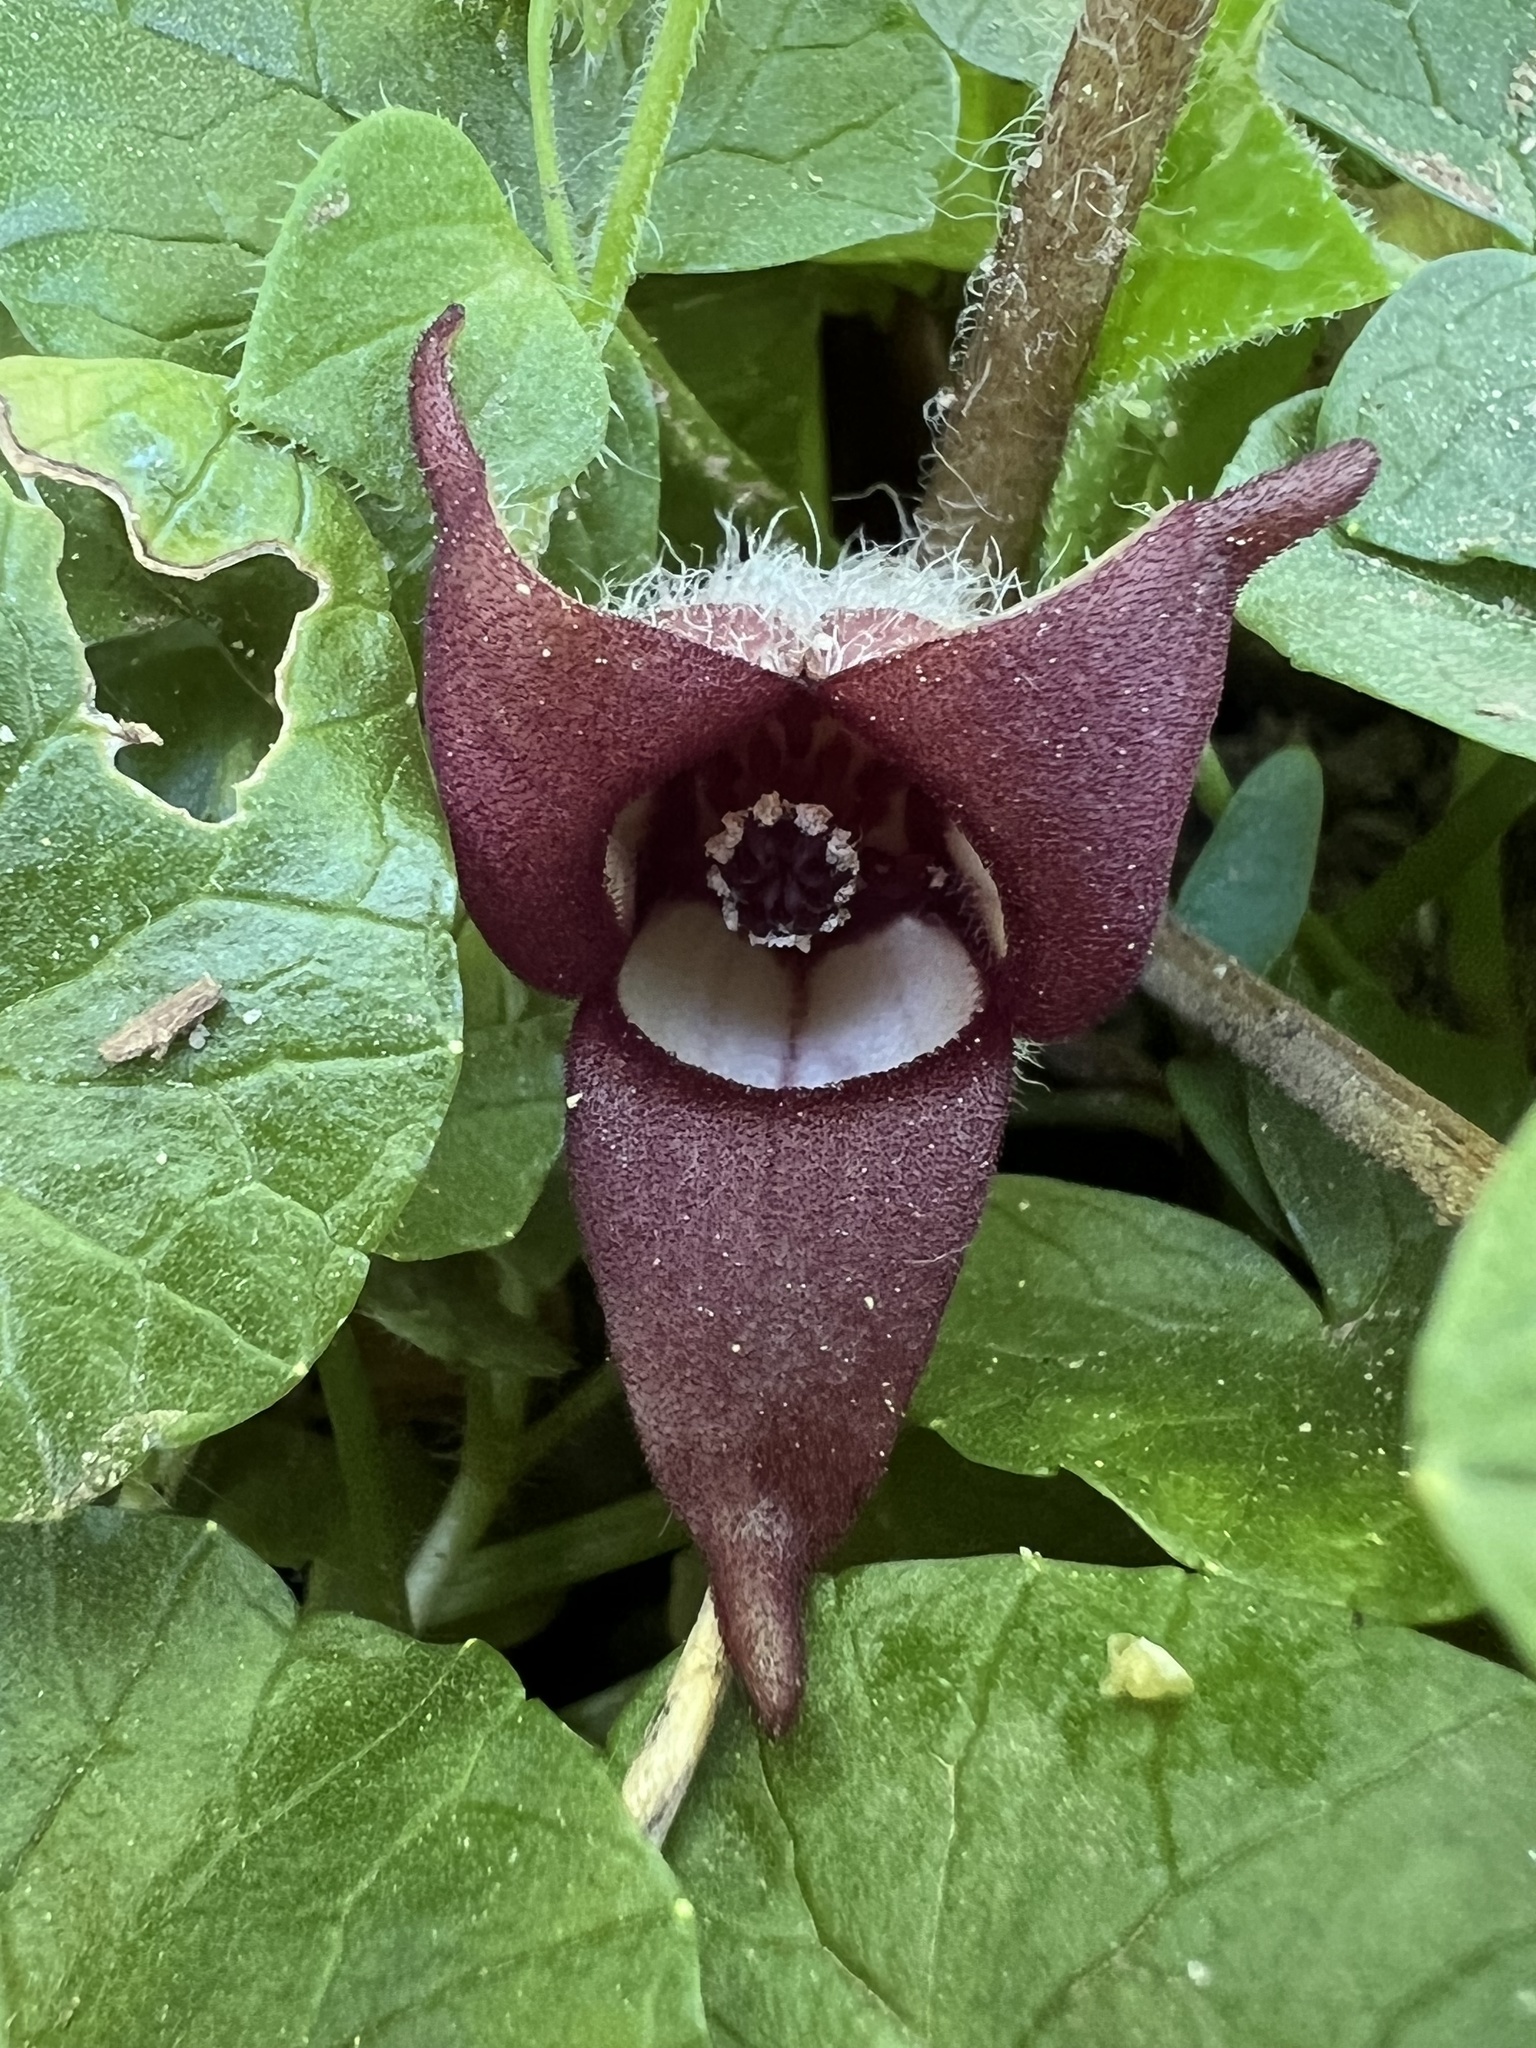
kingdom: Plantae
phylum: Tracheophyta
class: Magnoliopsida
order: Piperales
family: Aristolochiaceae
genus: Asarum
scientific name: Asarum canadense
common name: Wild ginger
